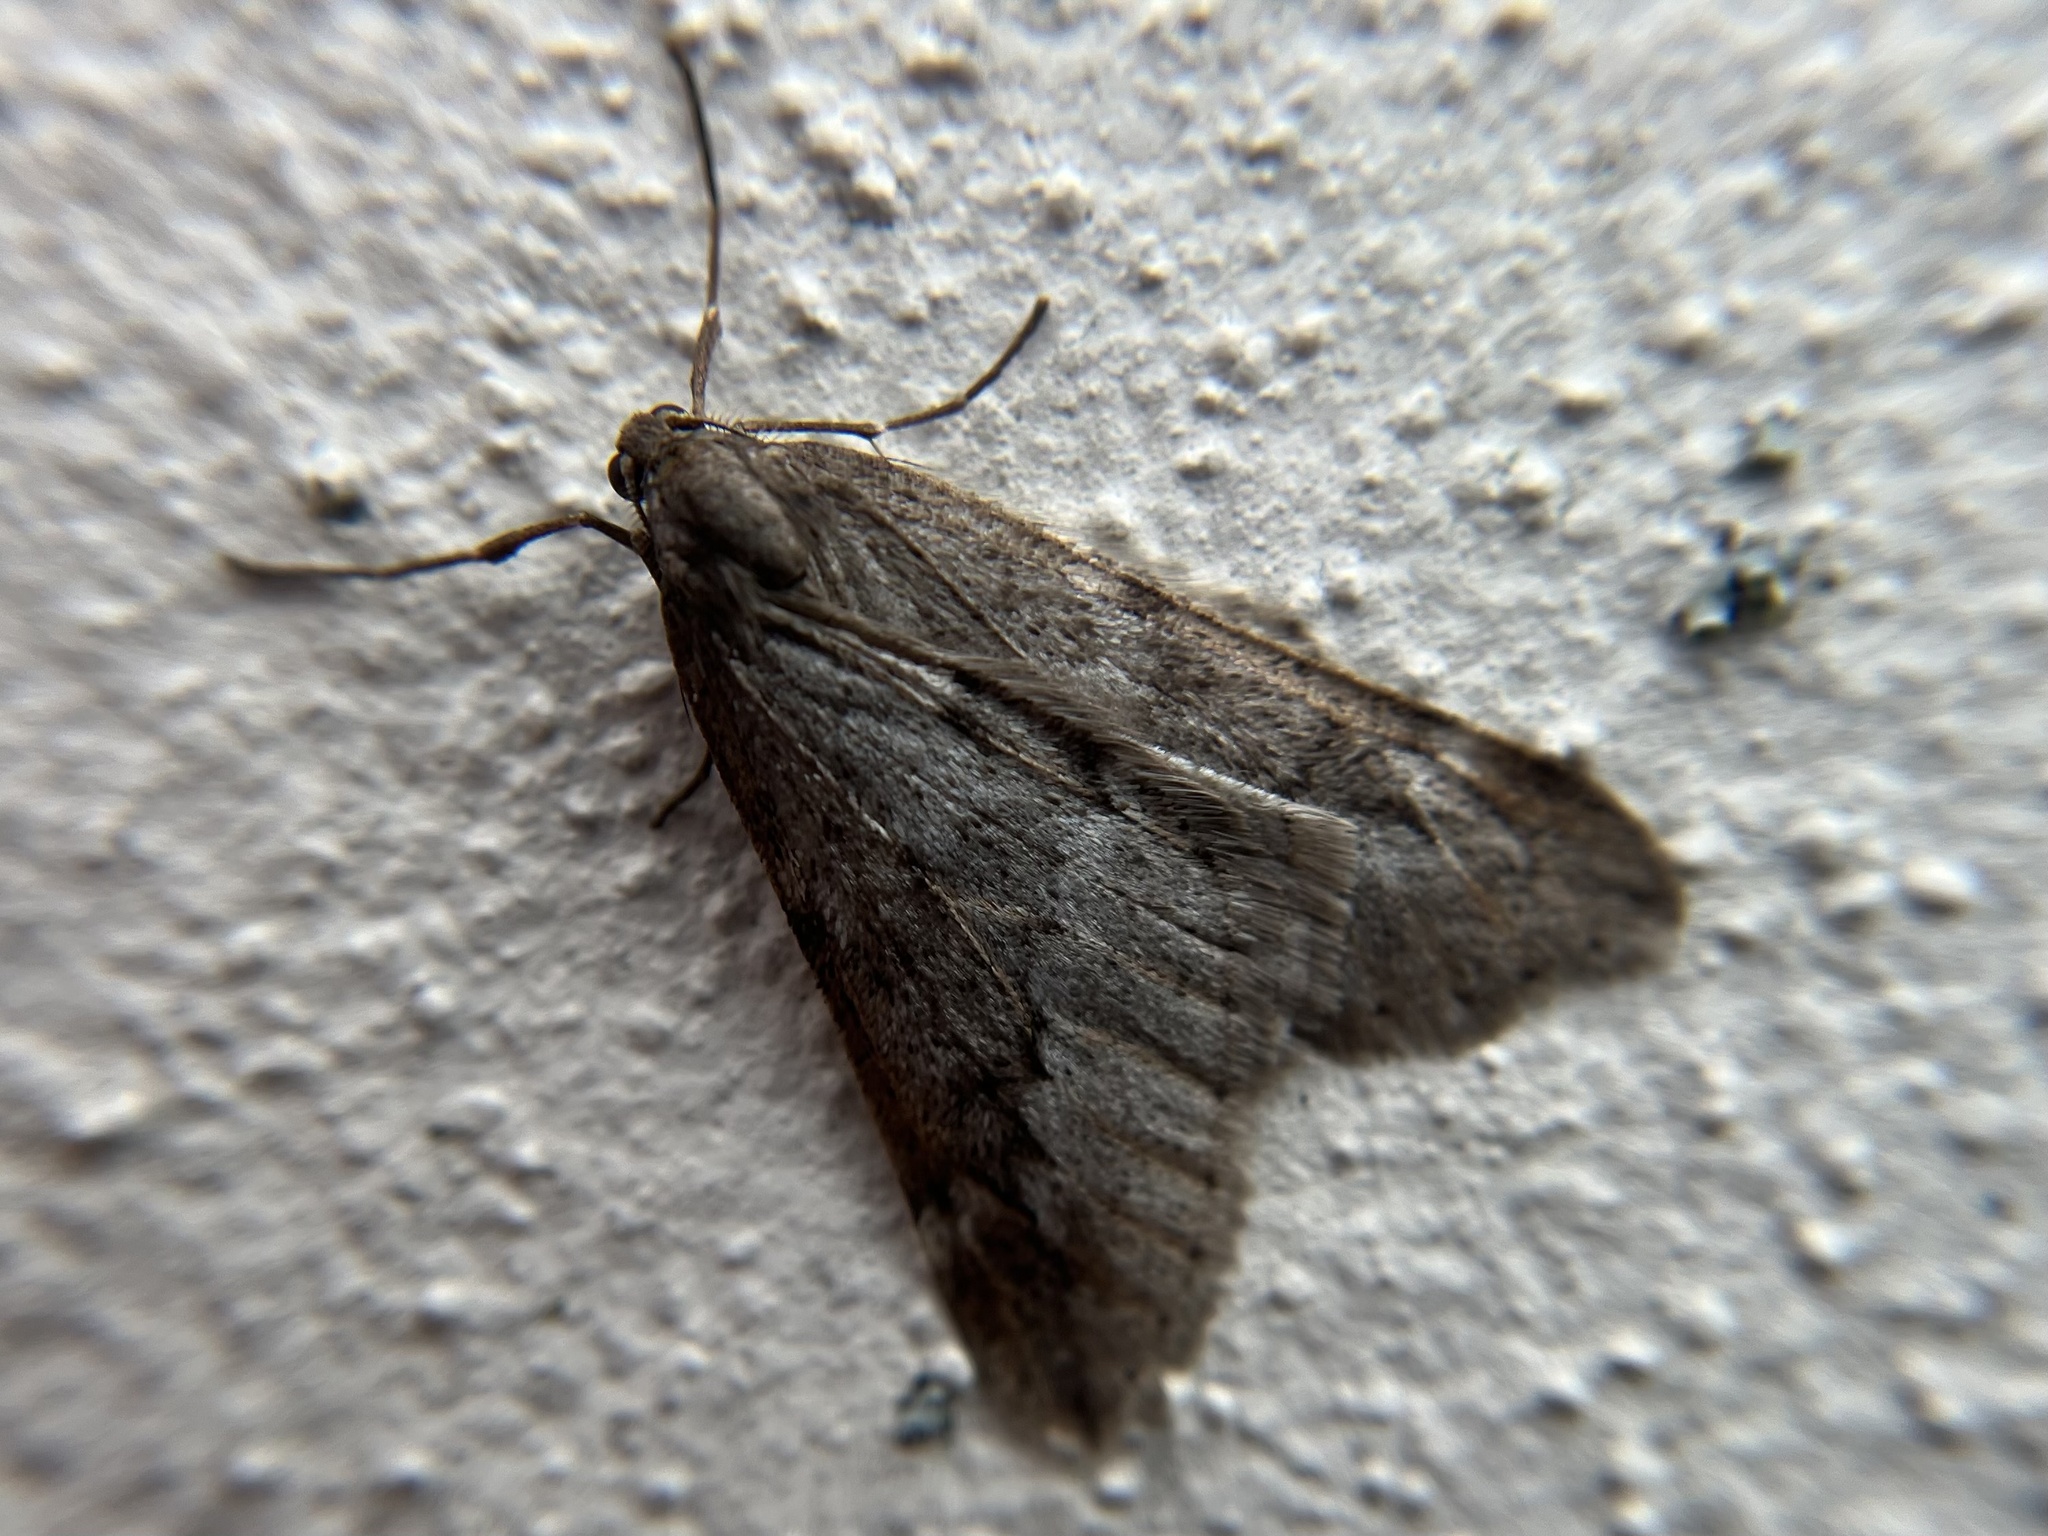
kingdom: Animalia
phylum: Arthropoda
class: Insecta
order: Lepidoptera
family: Geometridae
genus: Alsophila
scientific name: Alsophila aescularia
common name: March moth
